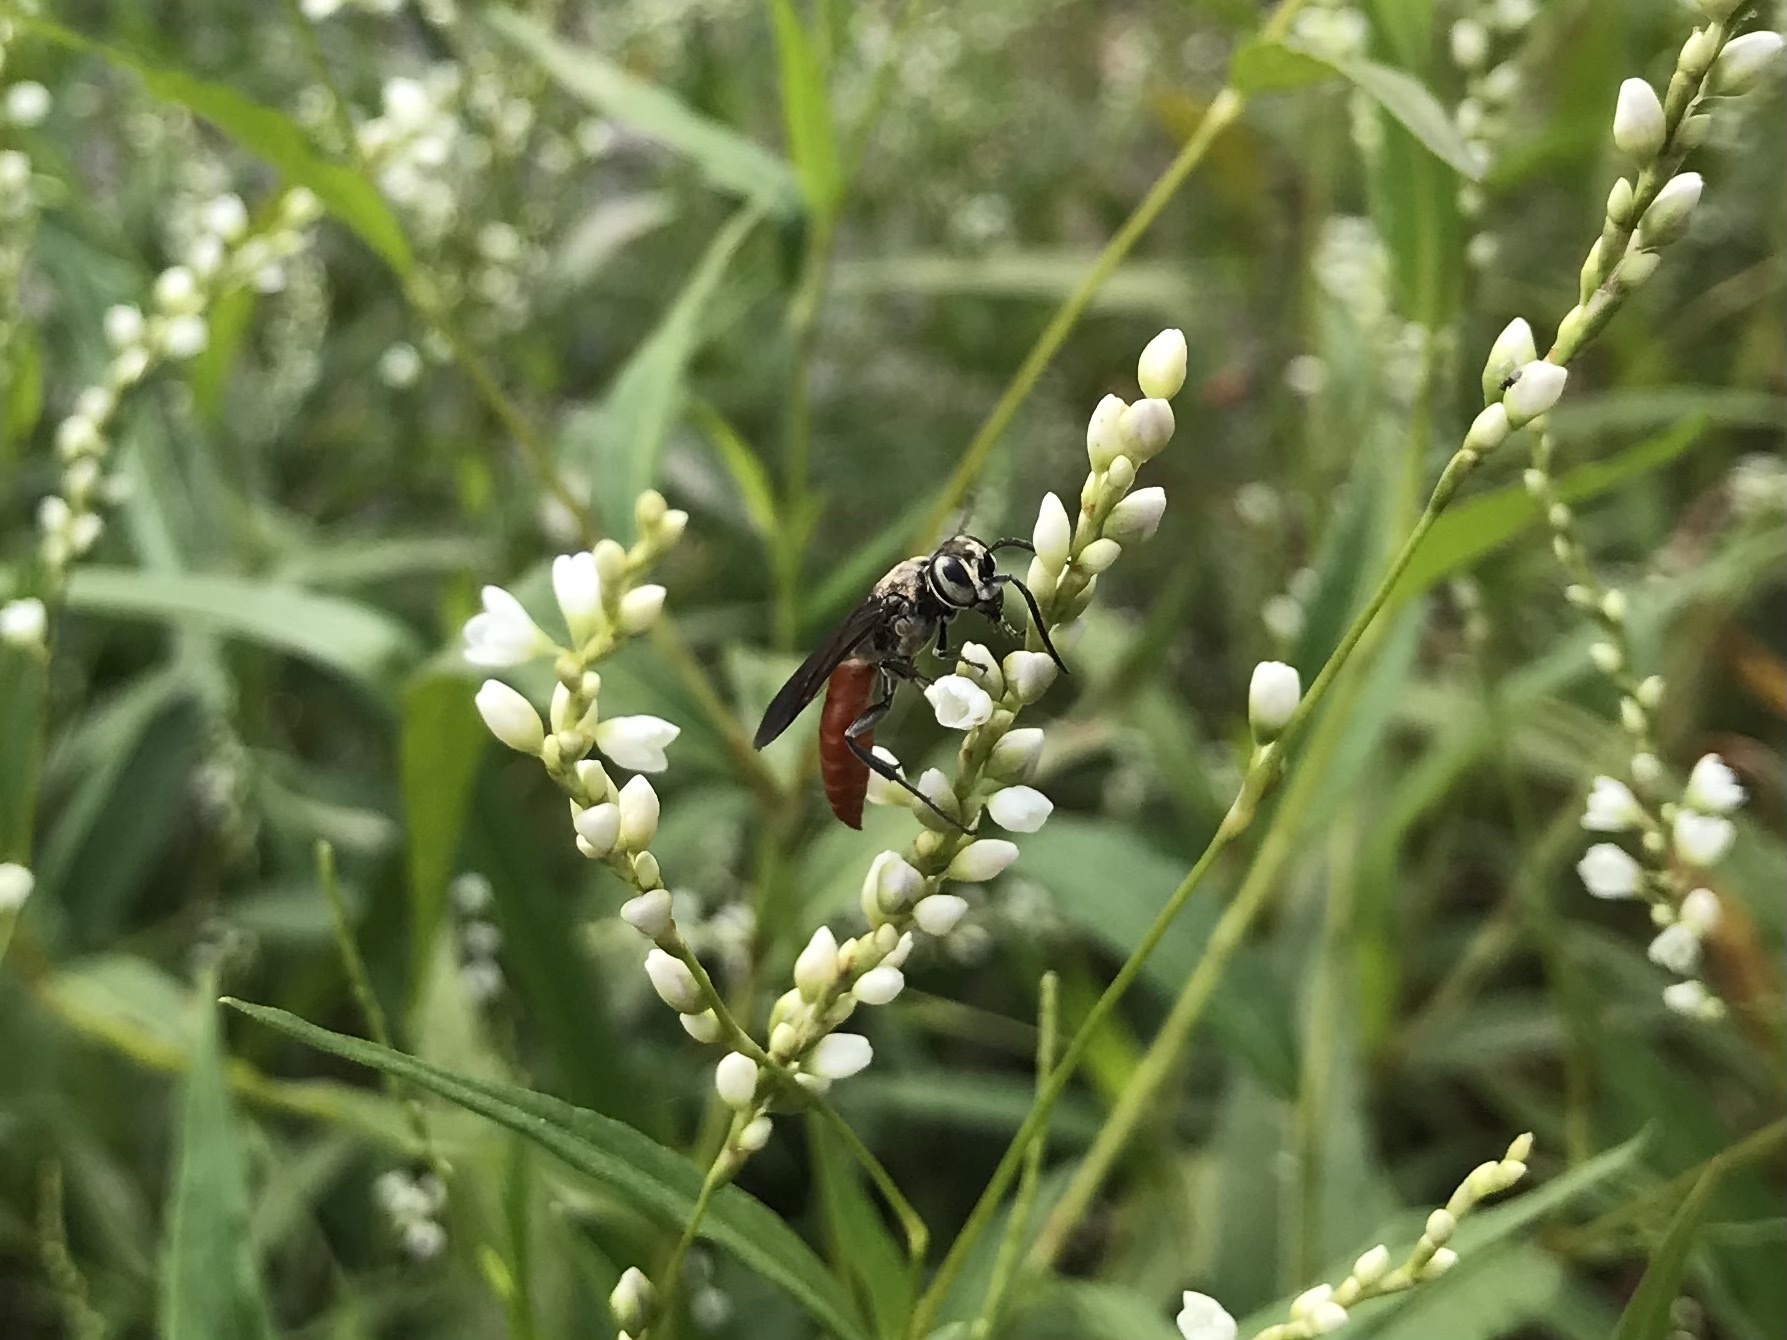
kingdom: Animalia
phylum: Arthropoda
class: Insecta
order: Hymenoptera
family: Crabronidae
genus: Larra
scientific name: Larra bicolor
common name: Wasp
